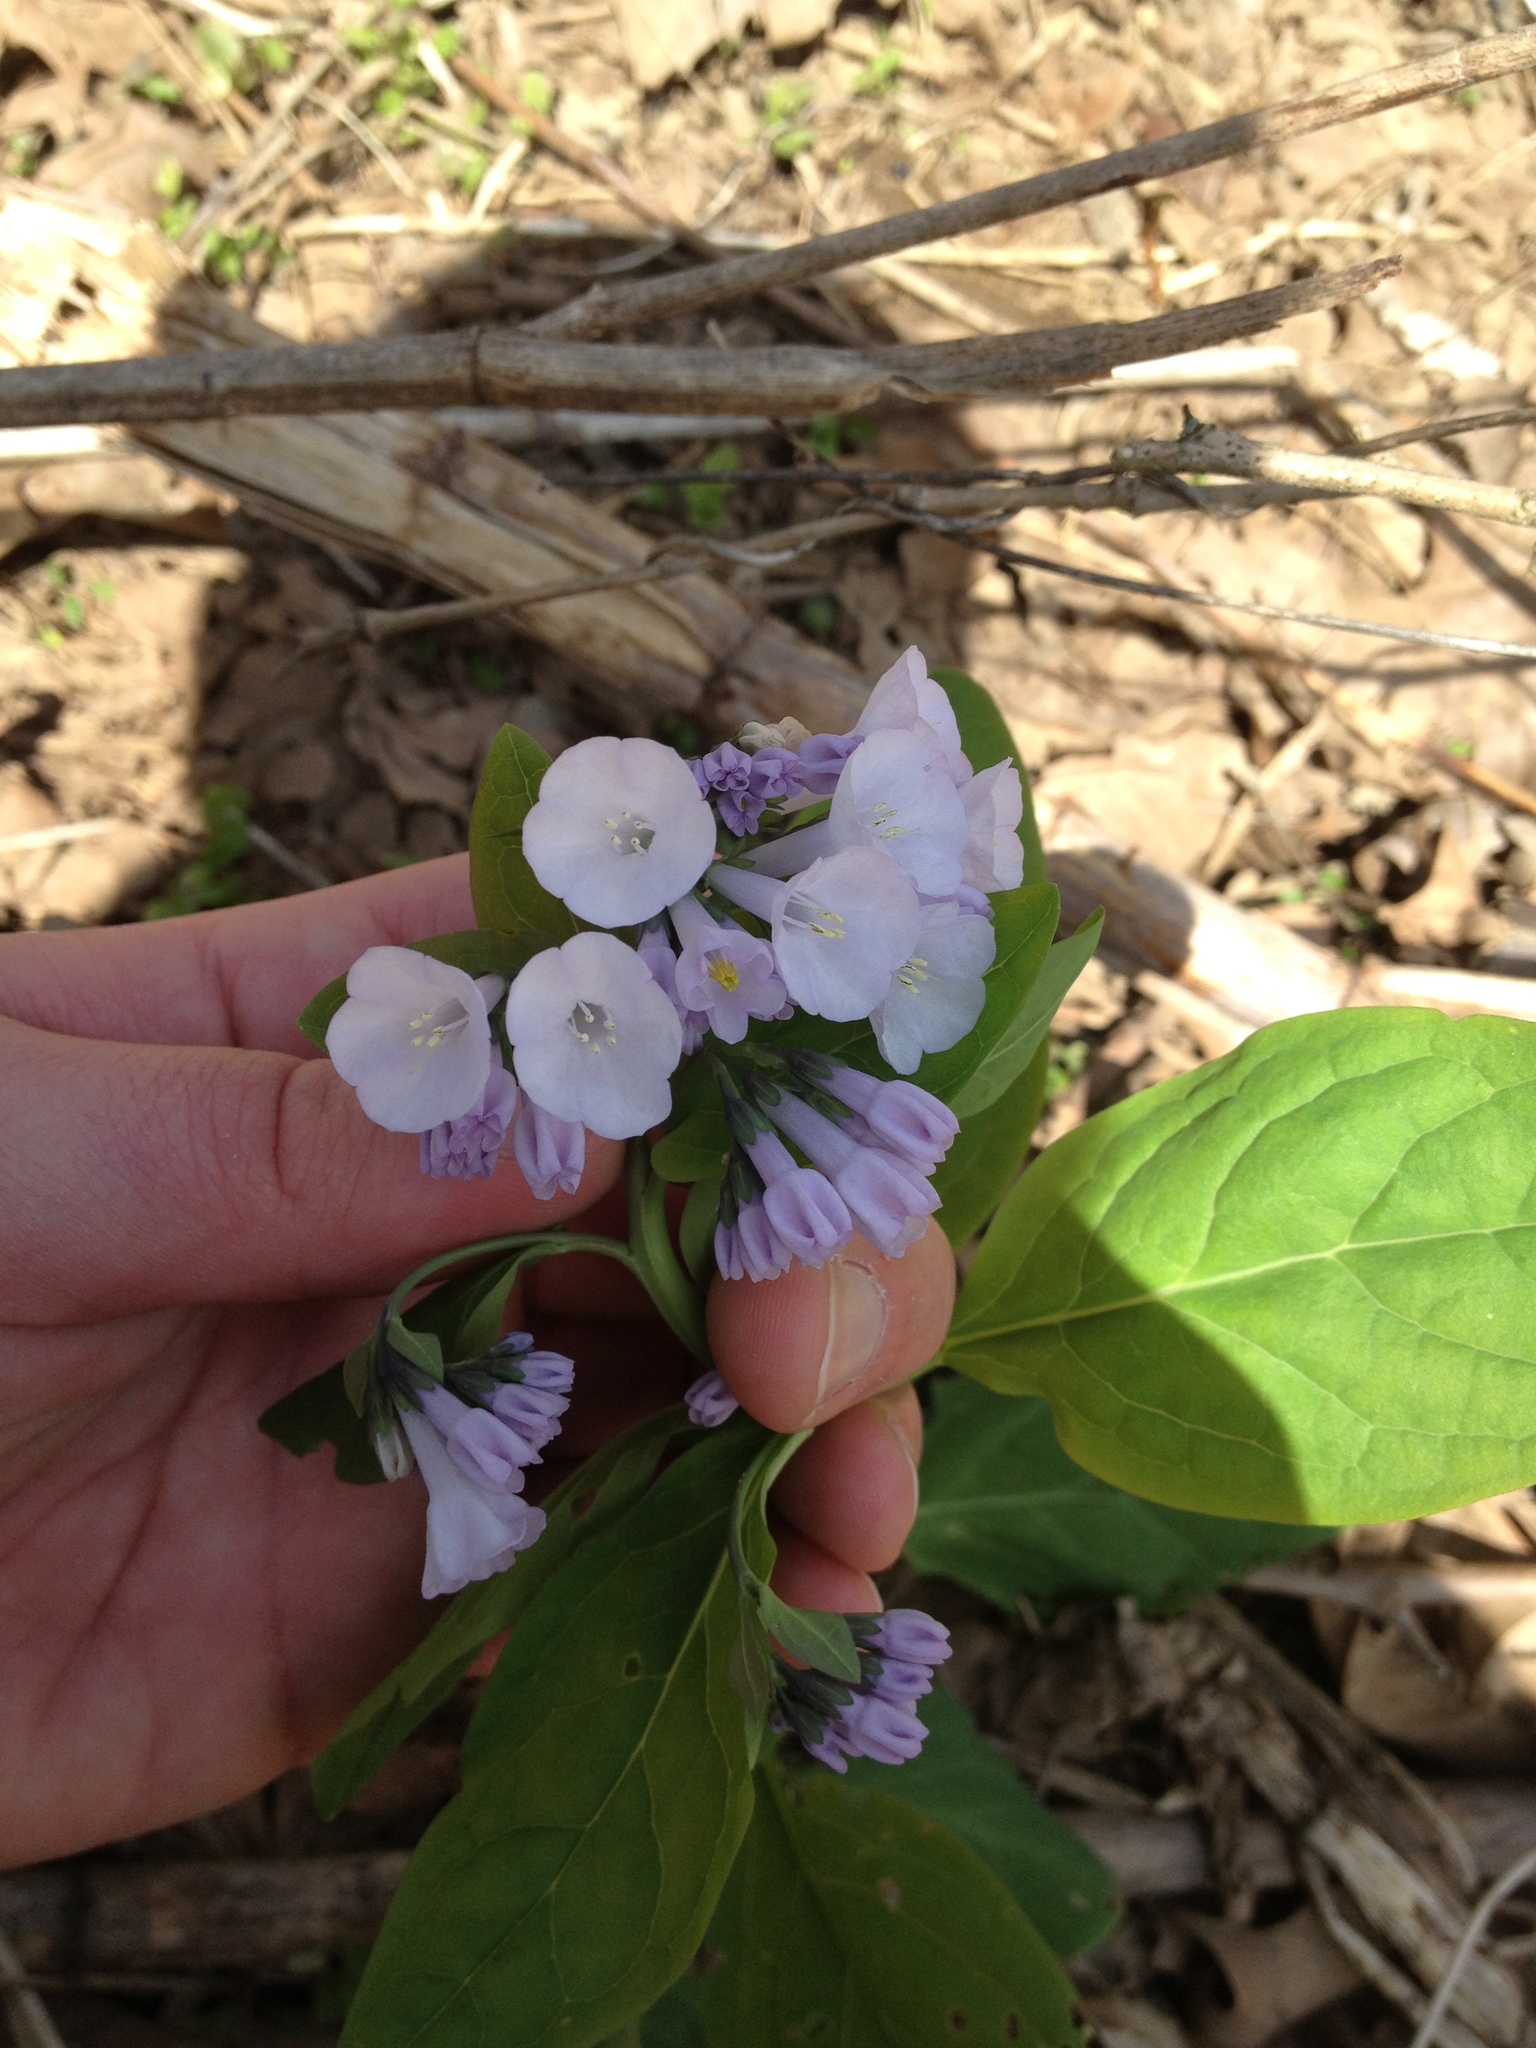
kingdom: Plantae
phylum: Tracheophyta
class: Magnoliopsida
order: Boraginales
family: Boraginaceae
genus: Mertensia
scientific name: Mertensia virginica
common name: Virginia bluebells
